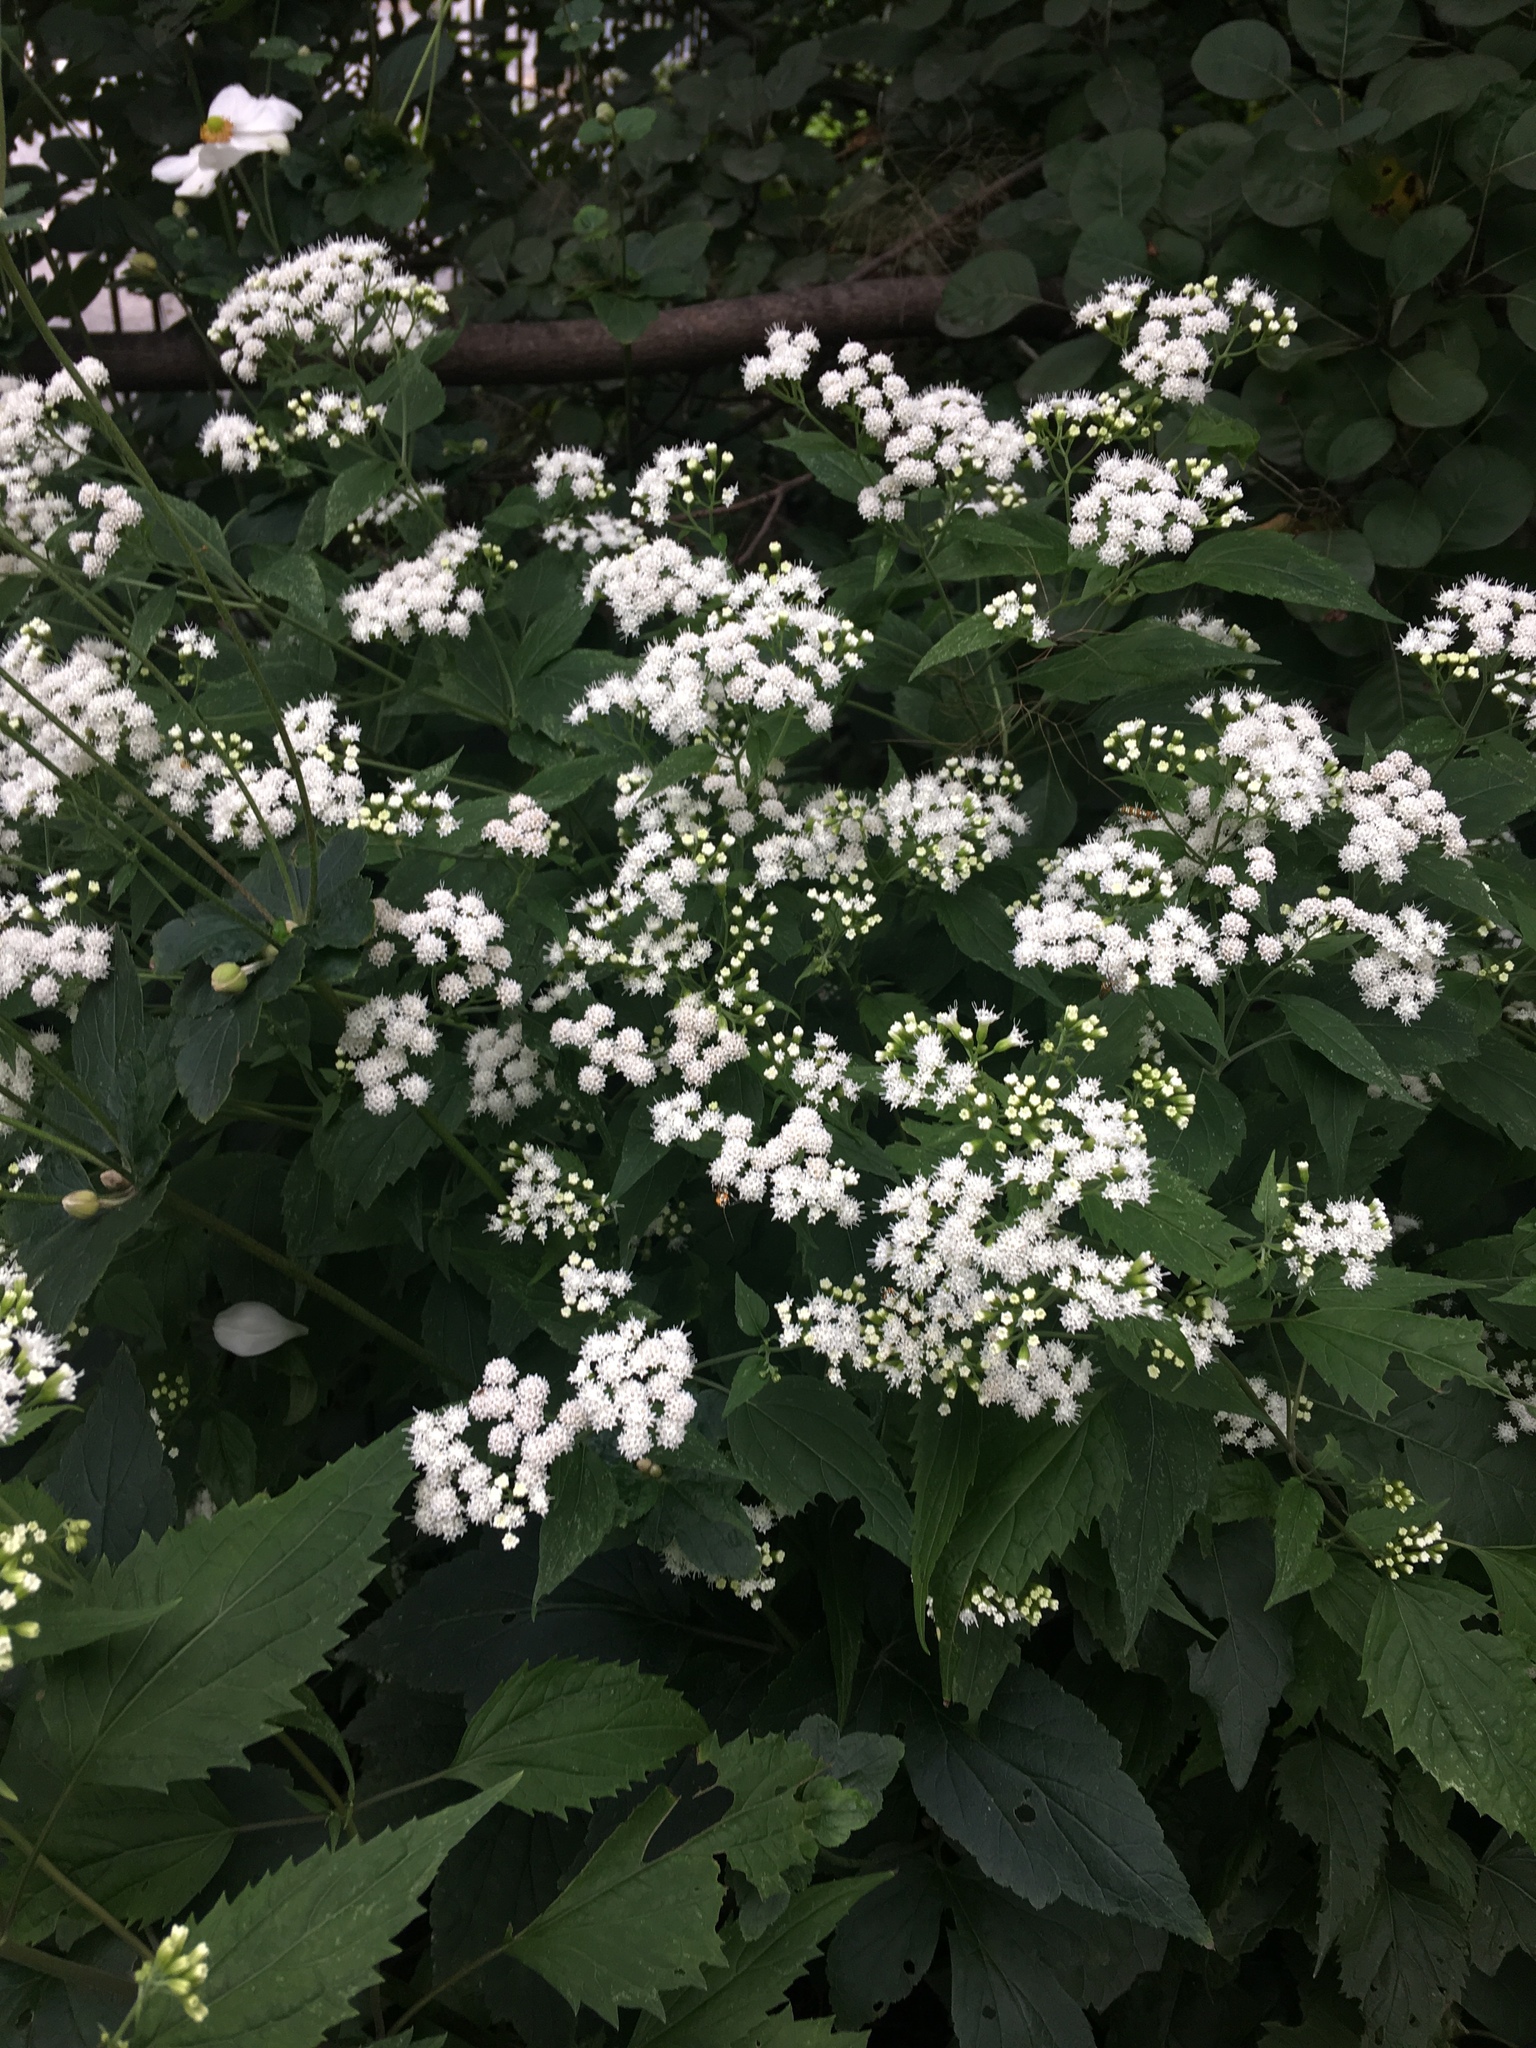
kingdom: Plantae
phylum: Tracheophyta
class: Magnoliopsida
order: Asterales
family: Asteraceae
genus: Ageratina
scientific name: Ageratina altissima
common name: White snakeroot
